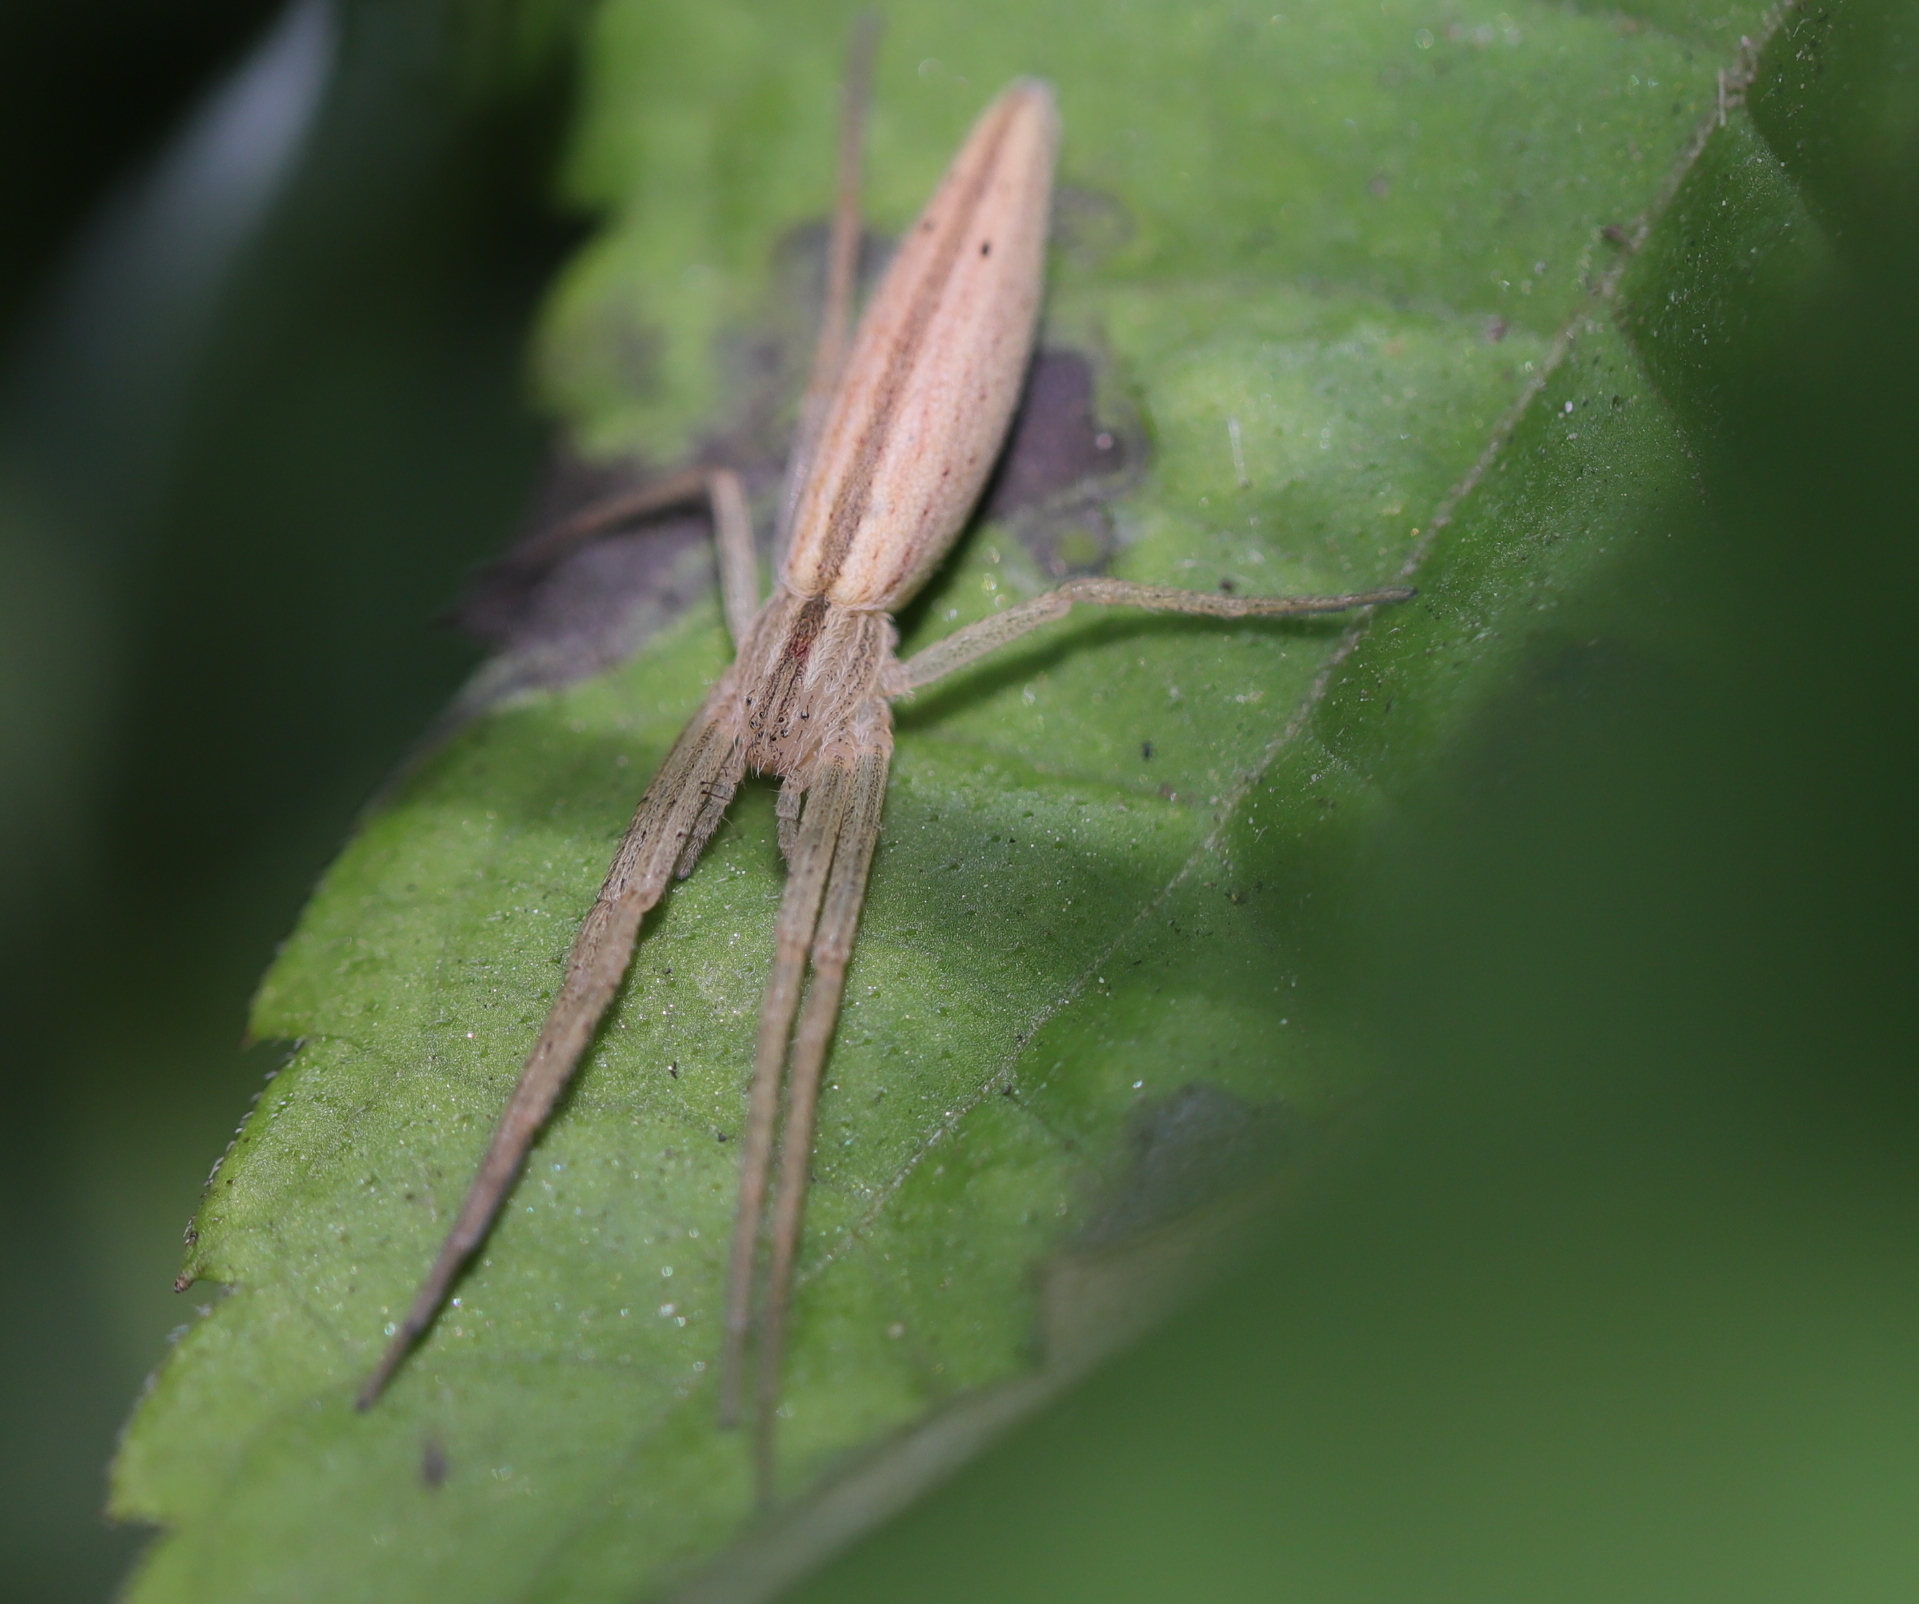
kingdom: Animalia
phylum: Arthropoda
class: Arachnida
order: Araneae
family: Philodromidae
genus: Tibellus
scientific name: Tibellus oblongus
